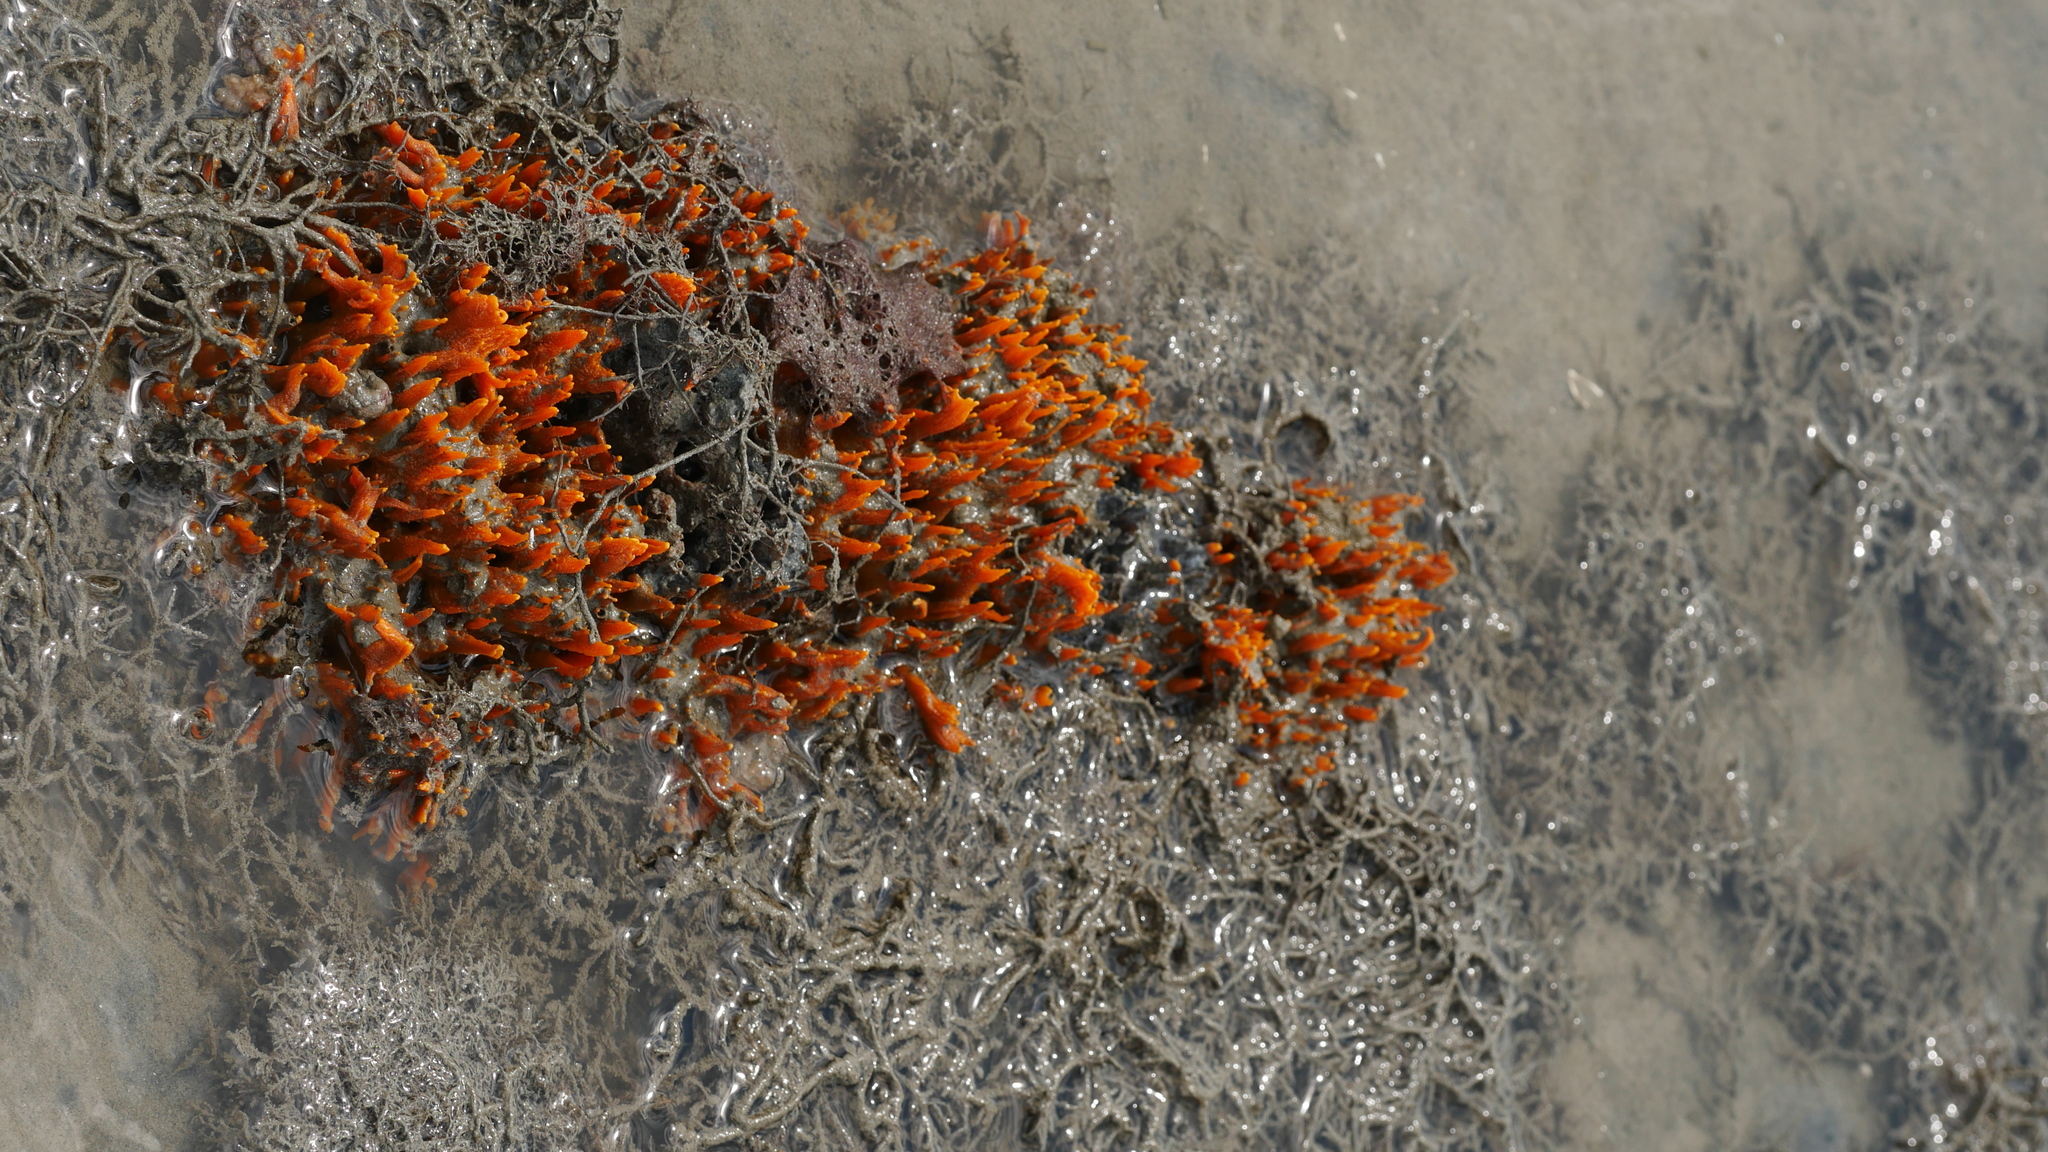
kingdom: Animalia
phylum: Porifera
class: Demospongiae
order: Suberitida
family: Halichondriidae
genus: Hymeniacidon
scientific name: Hymeniacidon heliophila
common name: Diurnal horny sponge
